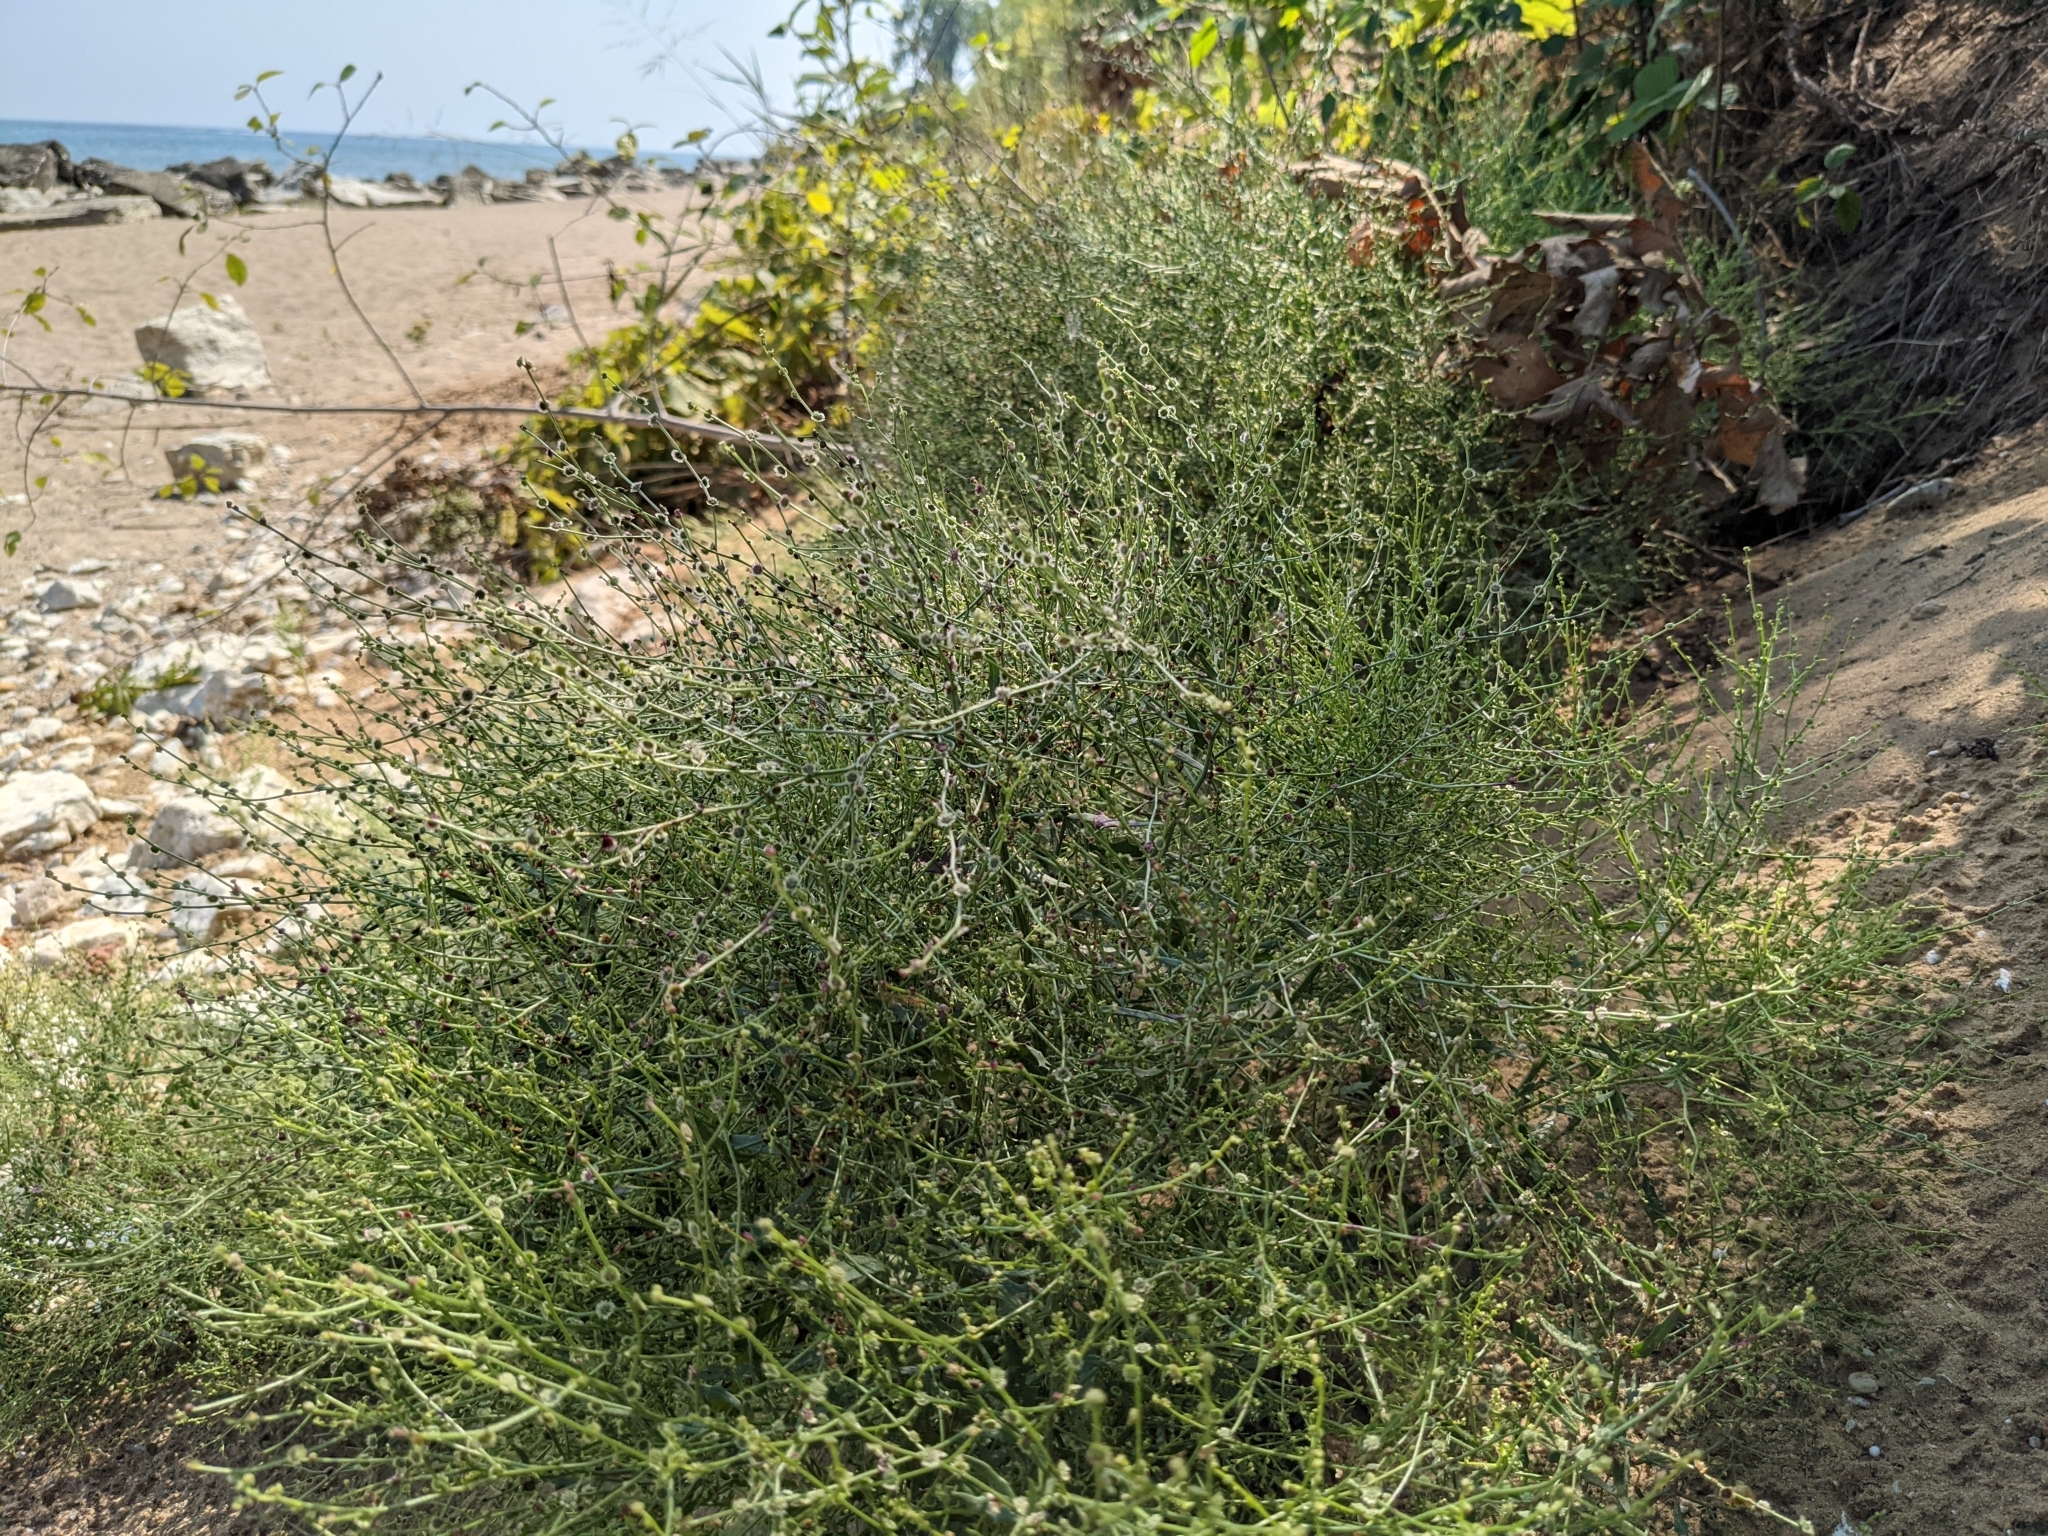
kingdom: Plantae
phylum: Tracheophyta
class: Magnoliopsida
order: Caryophyllales
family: Amaranthaceae
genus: Dysphania
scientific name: Dysphania atriplicifolia
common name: Plains tumbleweed
